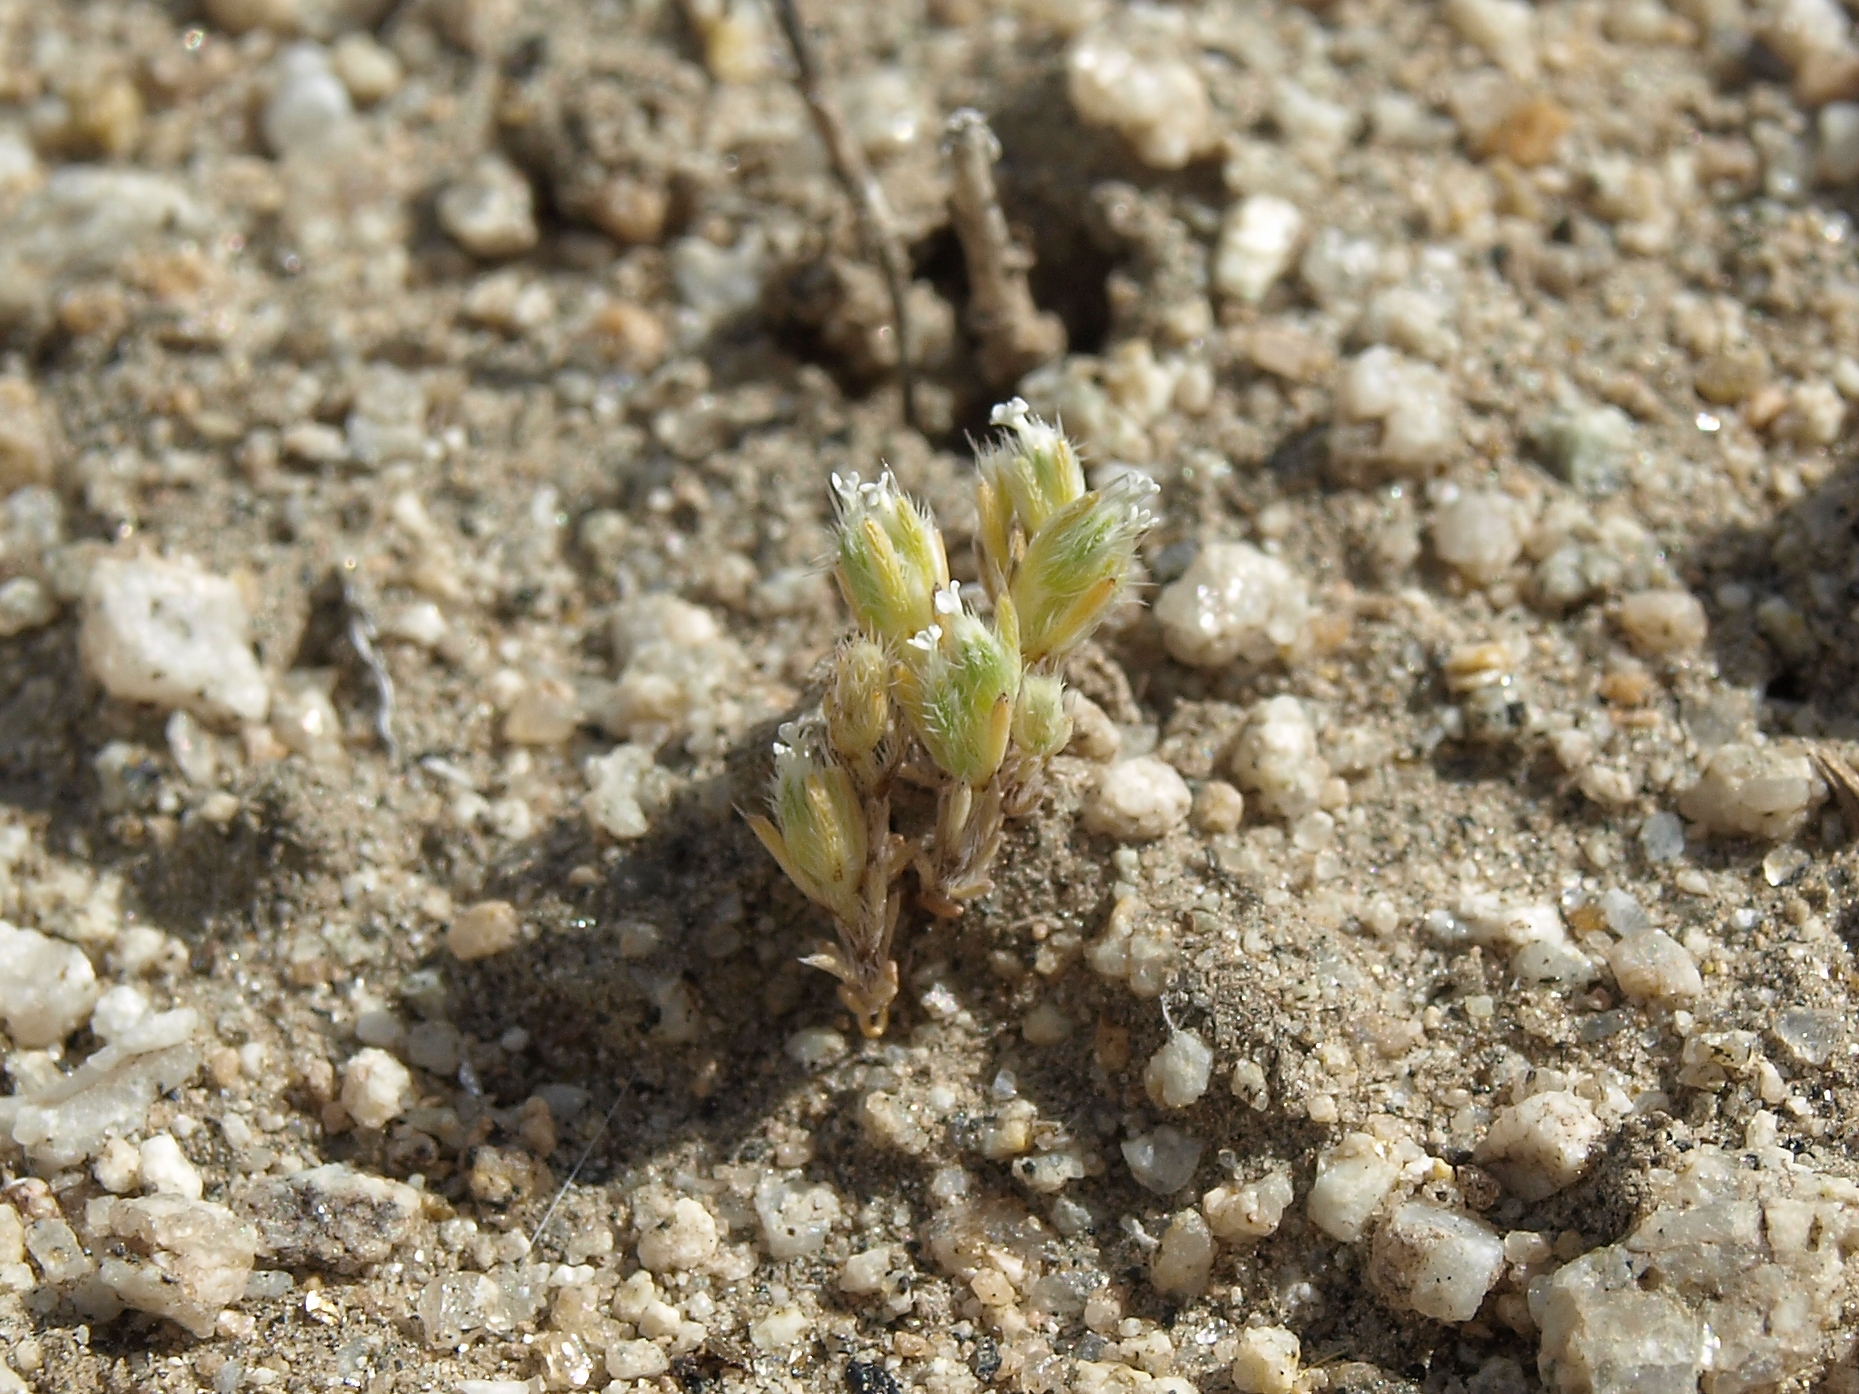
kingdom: Plantae
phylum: Tracheophyta
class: Magnoliopsida
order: Boraginales
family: Boraginaceae
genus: Greeneocharis
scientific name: Greeneocharis circumscissa
